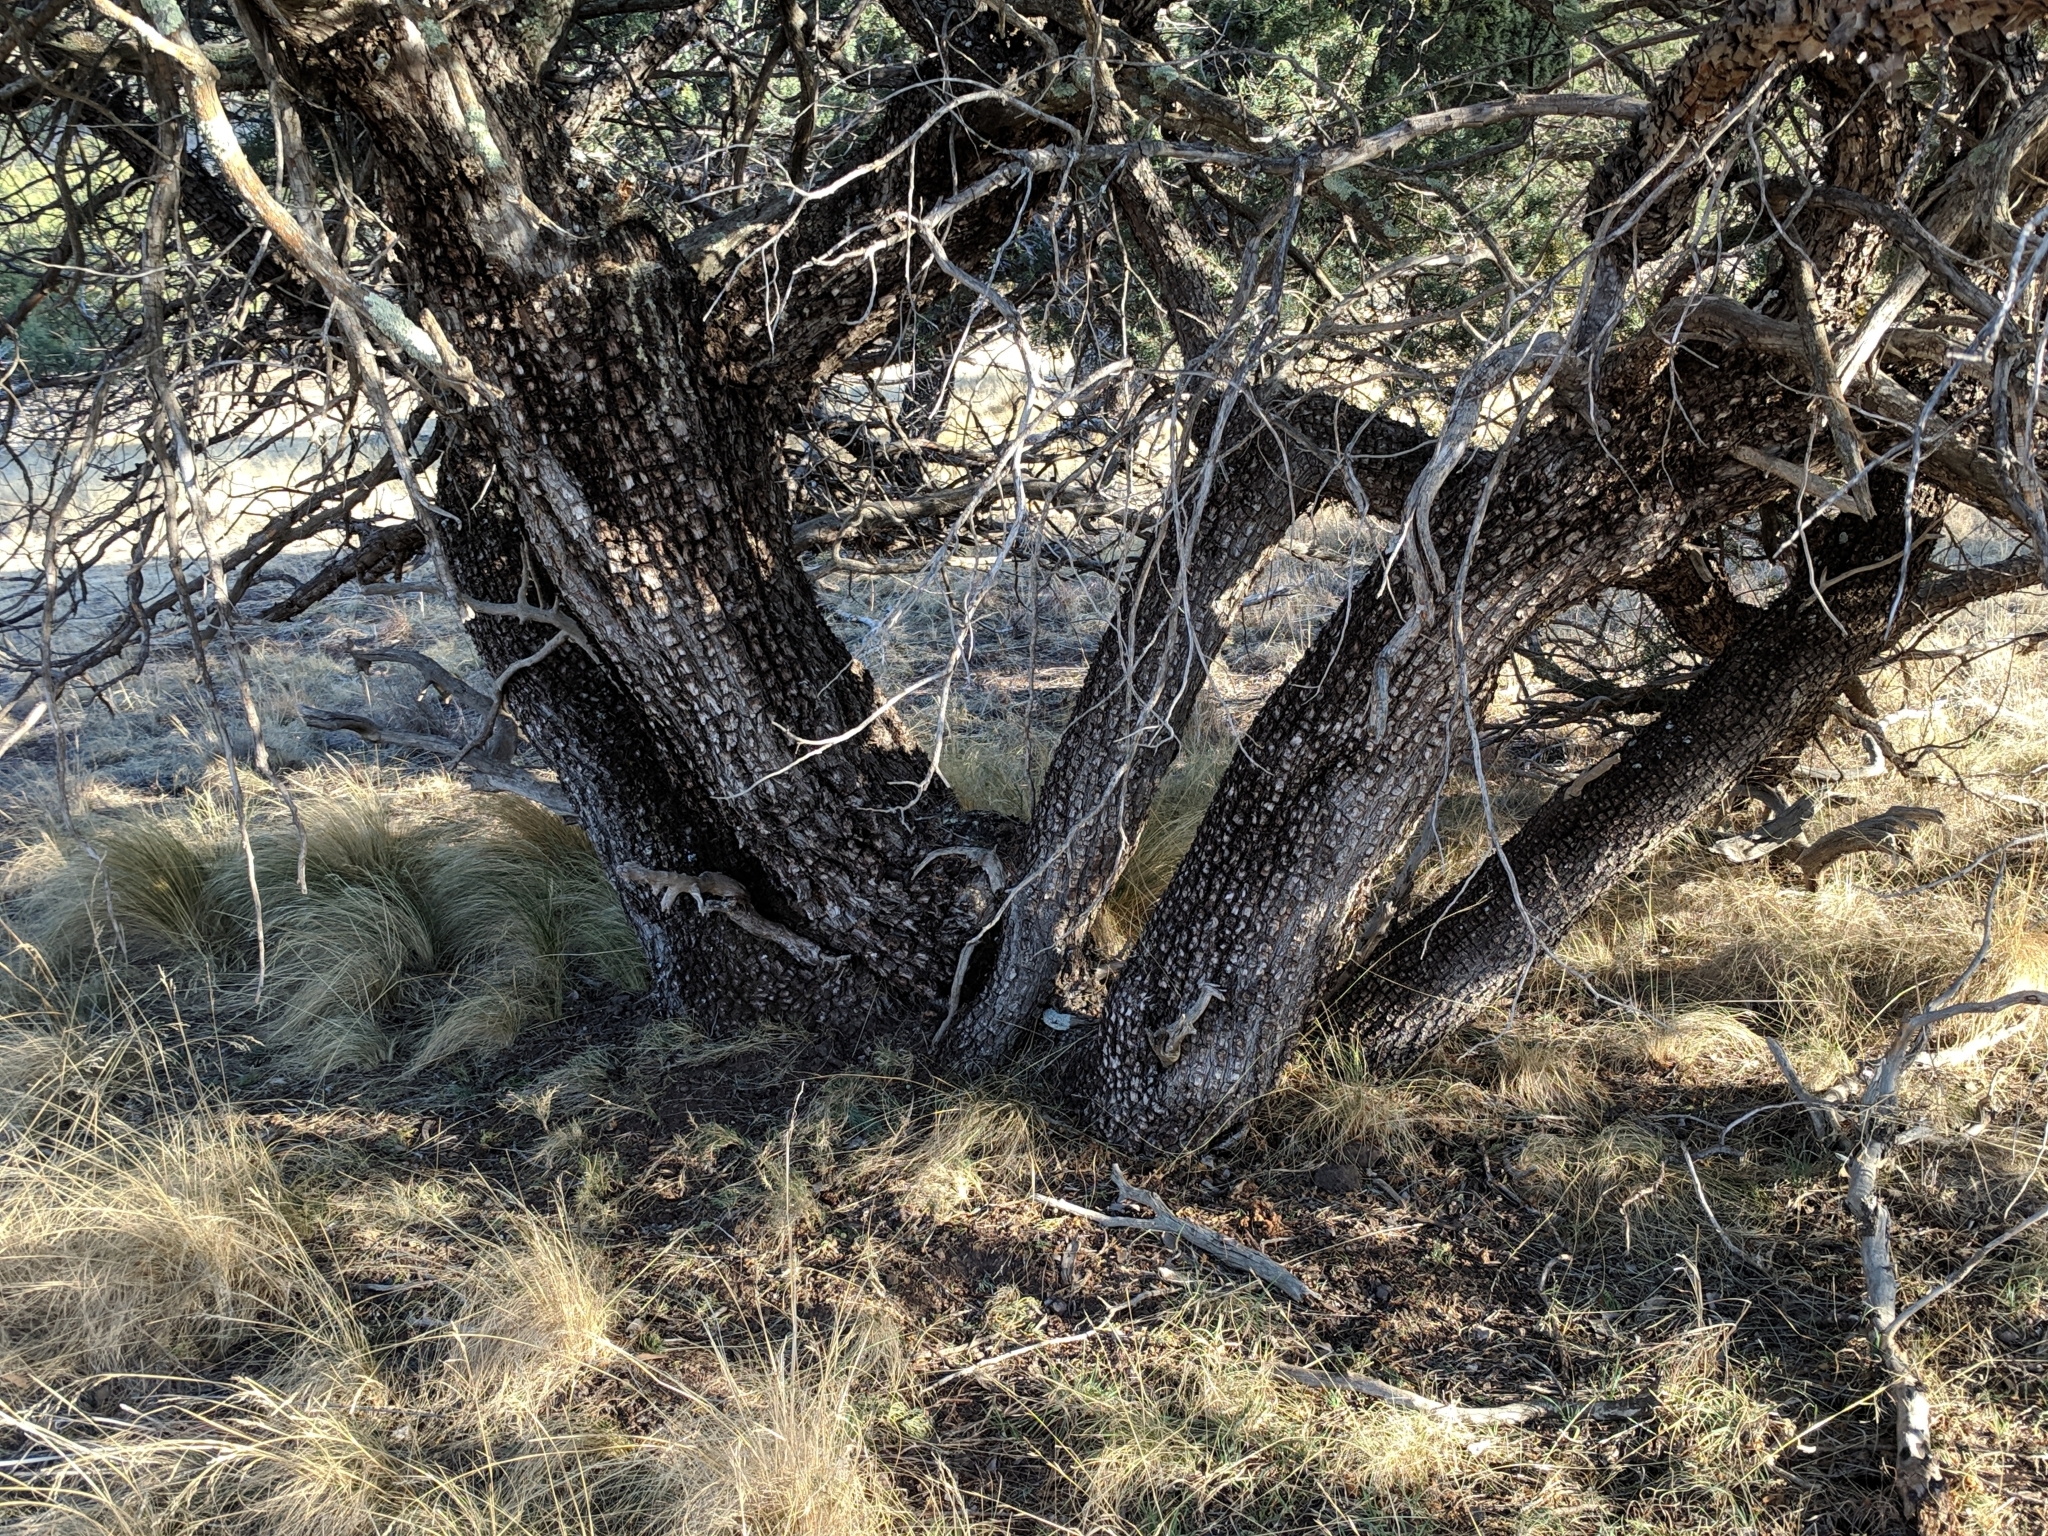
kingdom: Plantae
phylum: Tracheophyta
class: Pinopsida
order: Pinales
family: Cupressaceae
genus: Juniperus
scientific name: Juniperus deppeana
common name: Alligator juniper
